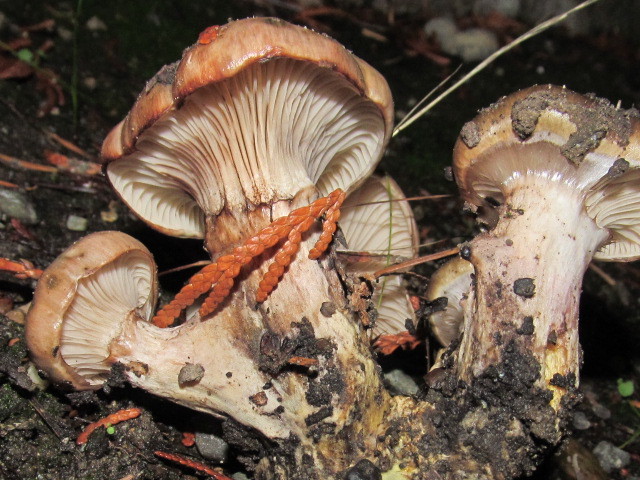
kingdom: Fungi
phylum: Basidiomycota
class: Agaricomycetes
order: Boletales
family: Gomphidiaceae
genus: Gomphidius
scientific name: Gomphidius oregonensis
